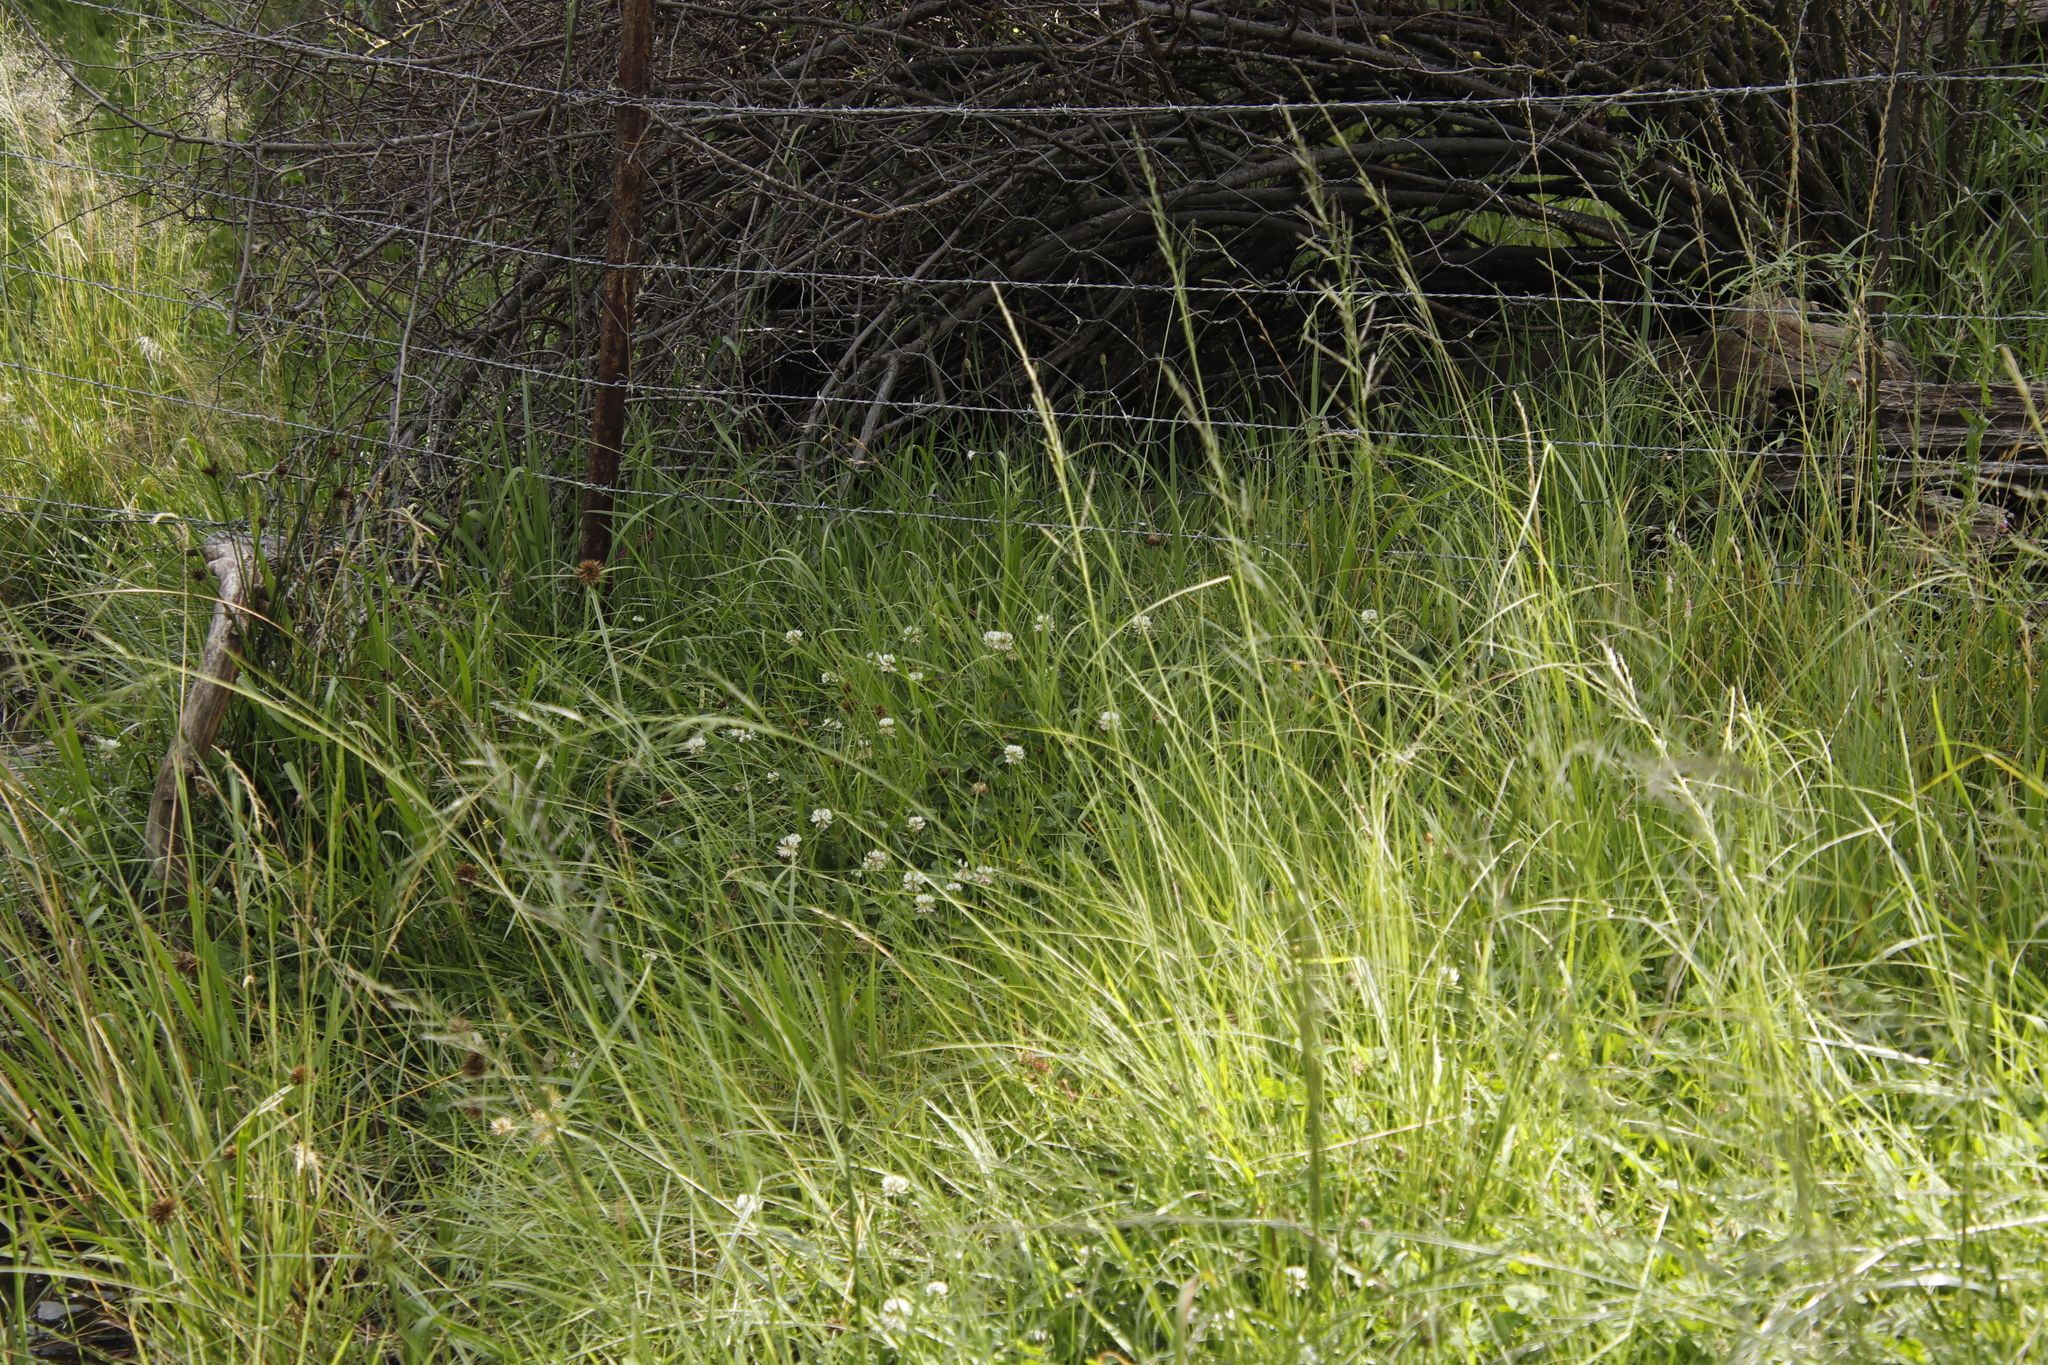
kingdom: Plantae
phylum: Tracheophyta
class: Magnoliopsida
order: Fabales
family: Fabaceae
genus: Trifolium
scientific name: Trifolium repens
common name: White clover
